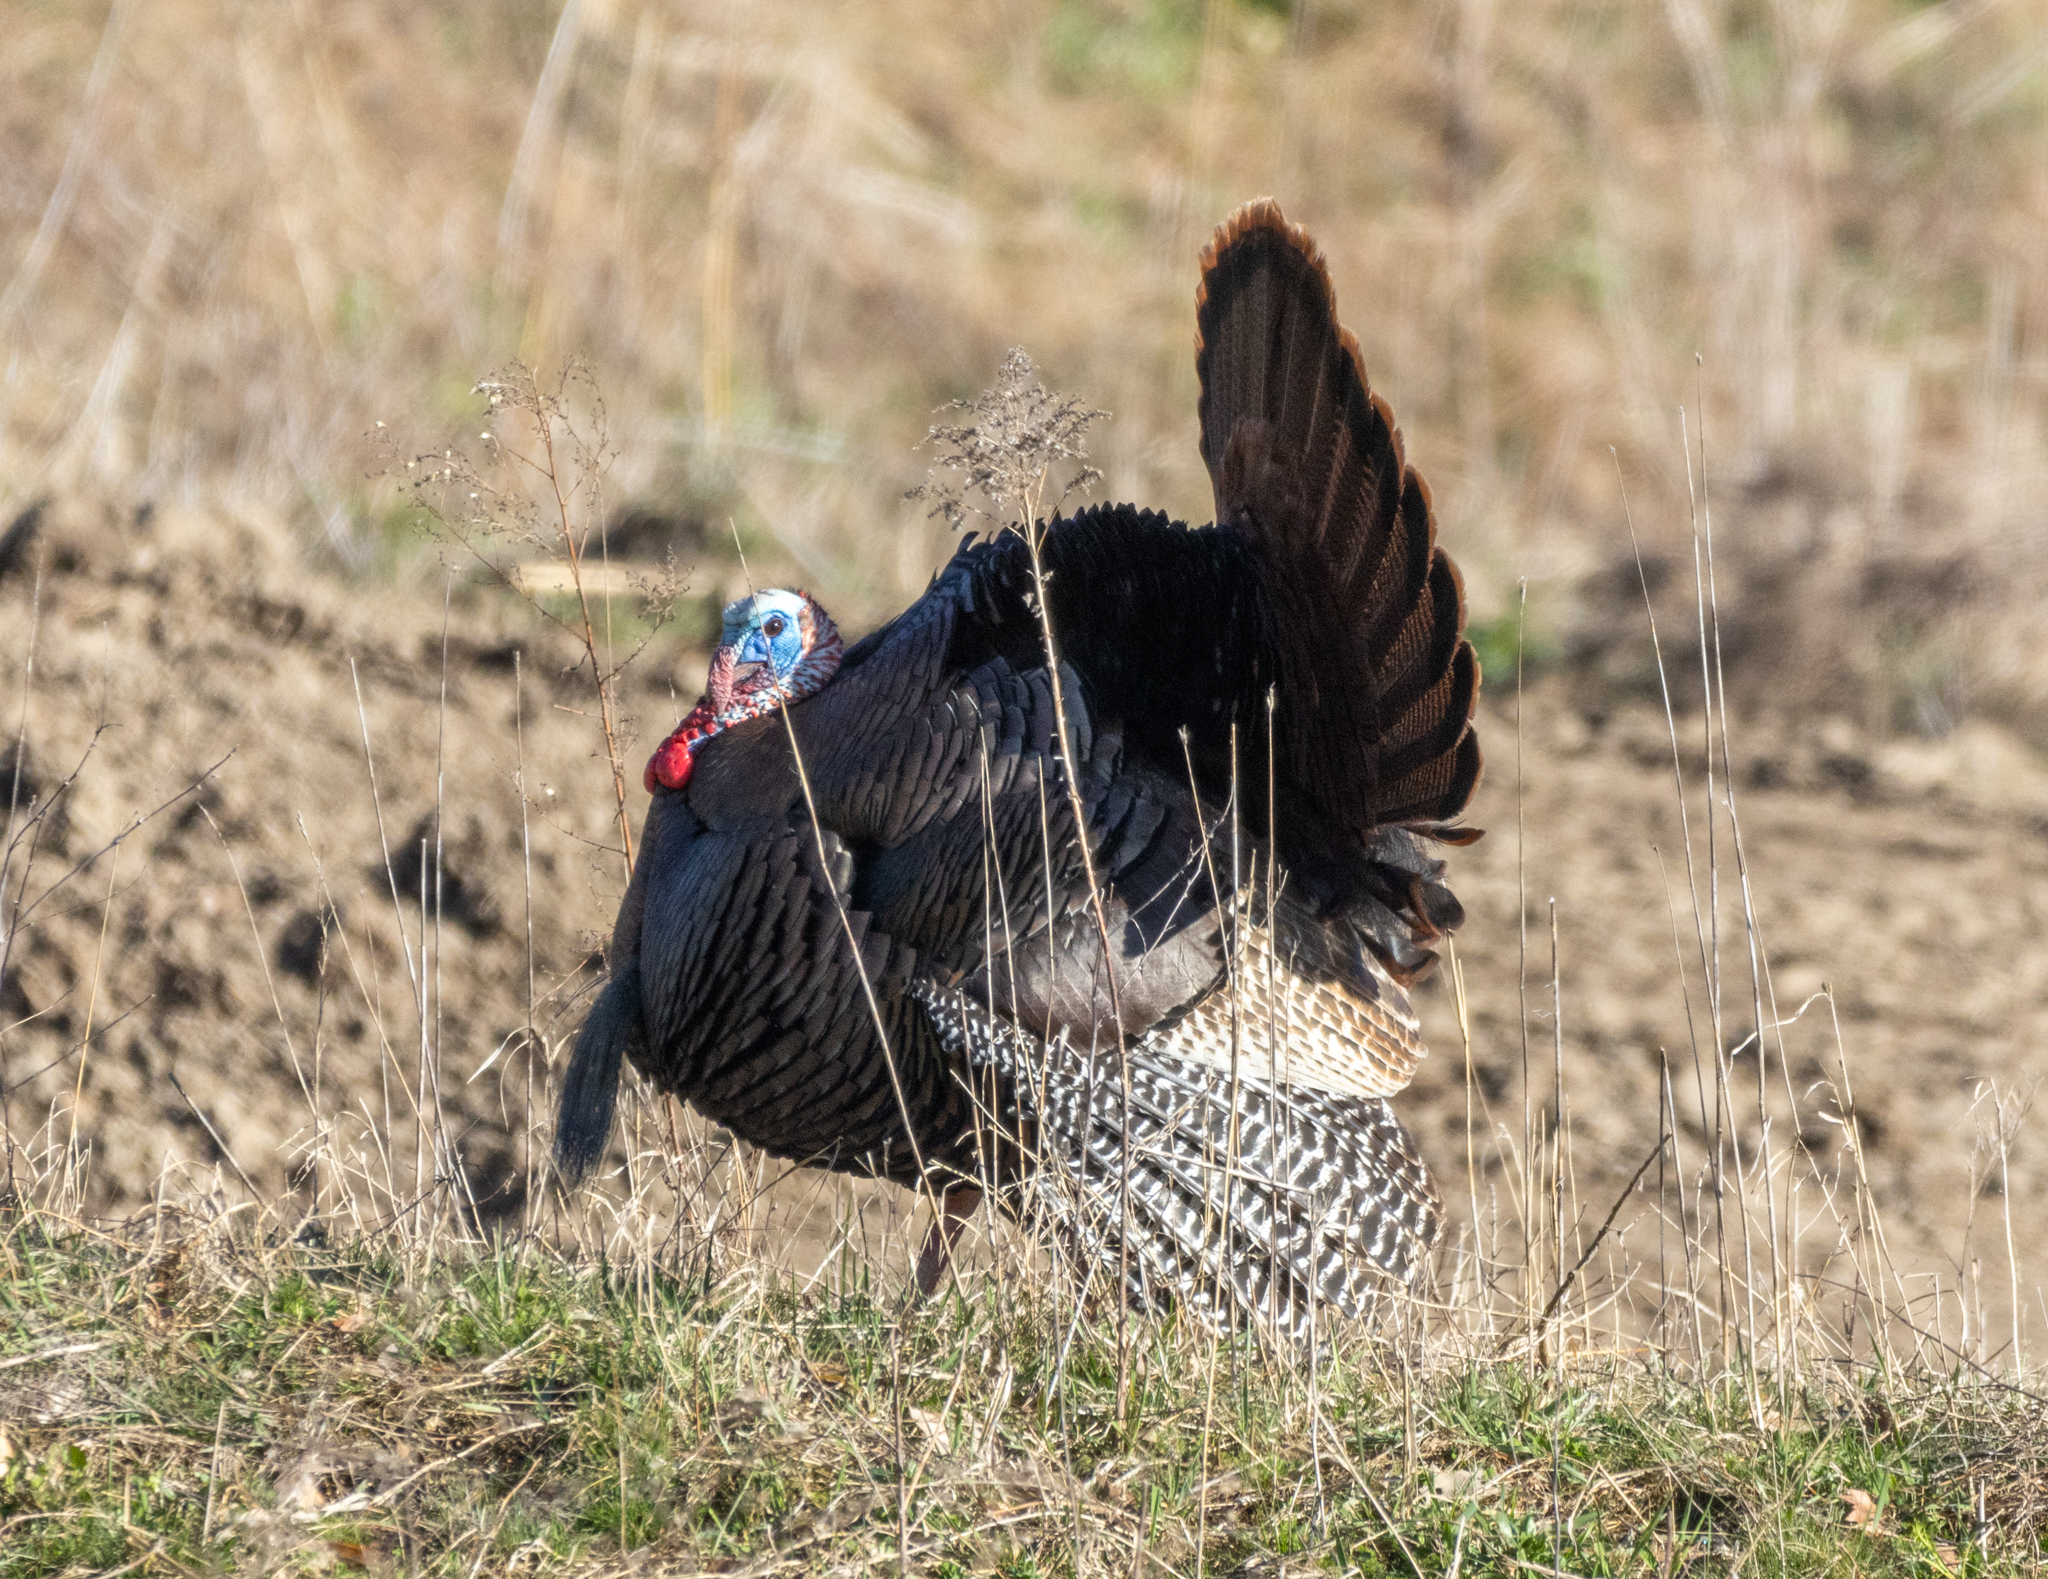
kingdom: Animalia
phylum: Chordata
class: Aves
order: Galliformes
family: Phasianidae
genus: Meleagris
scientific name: Meleagris gallopavo
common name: Wild turkey
